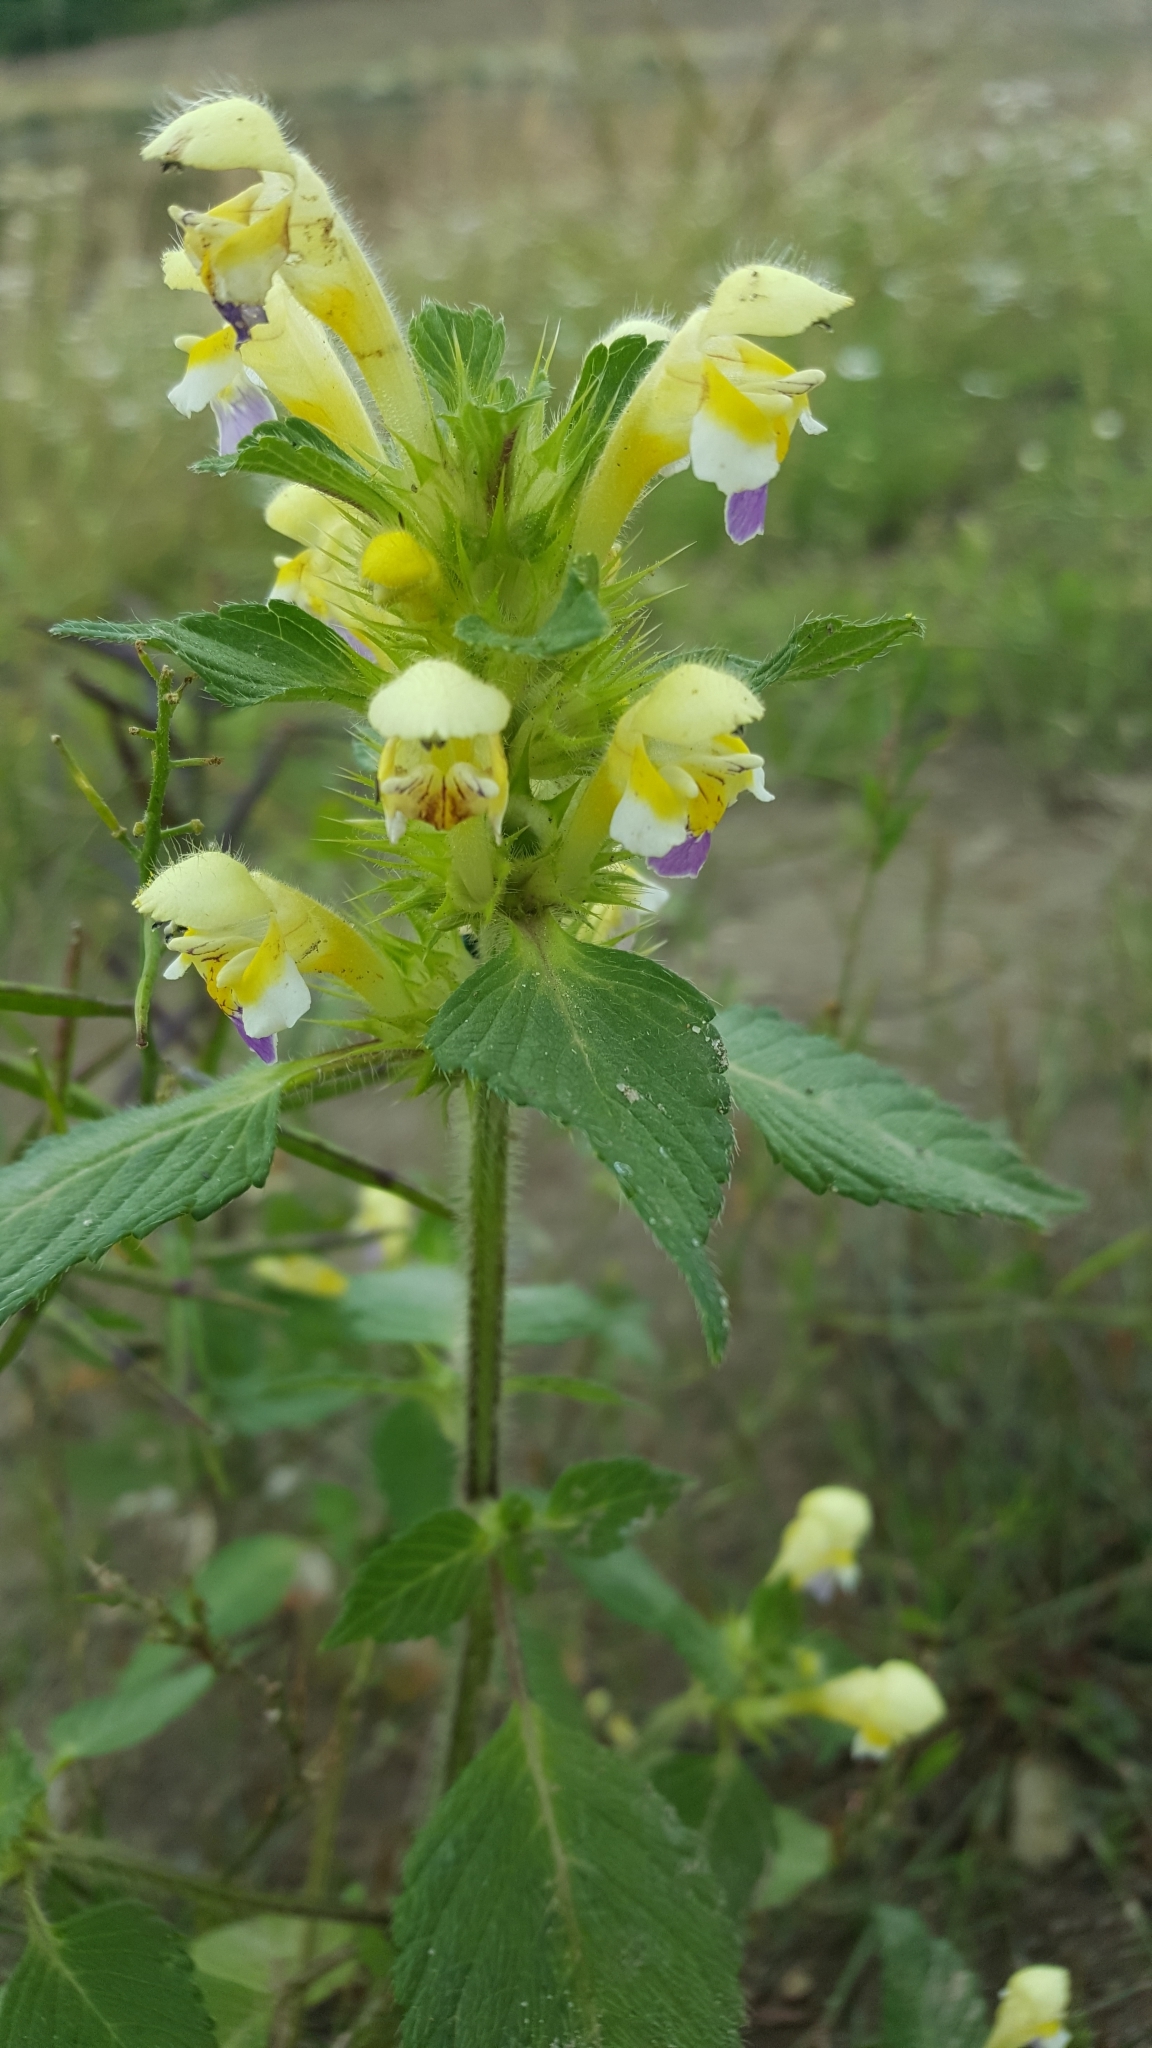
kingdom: Plantae
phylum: Tracheophyta
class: Magnoliopsida
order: Lamiales
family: Lamiaceae
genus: Galeopsis
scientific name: Galeopsis speciosa
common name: Large-flowered hemp-nettle
